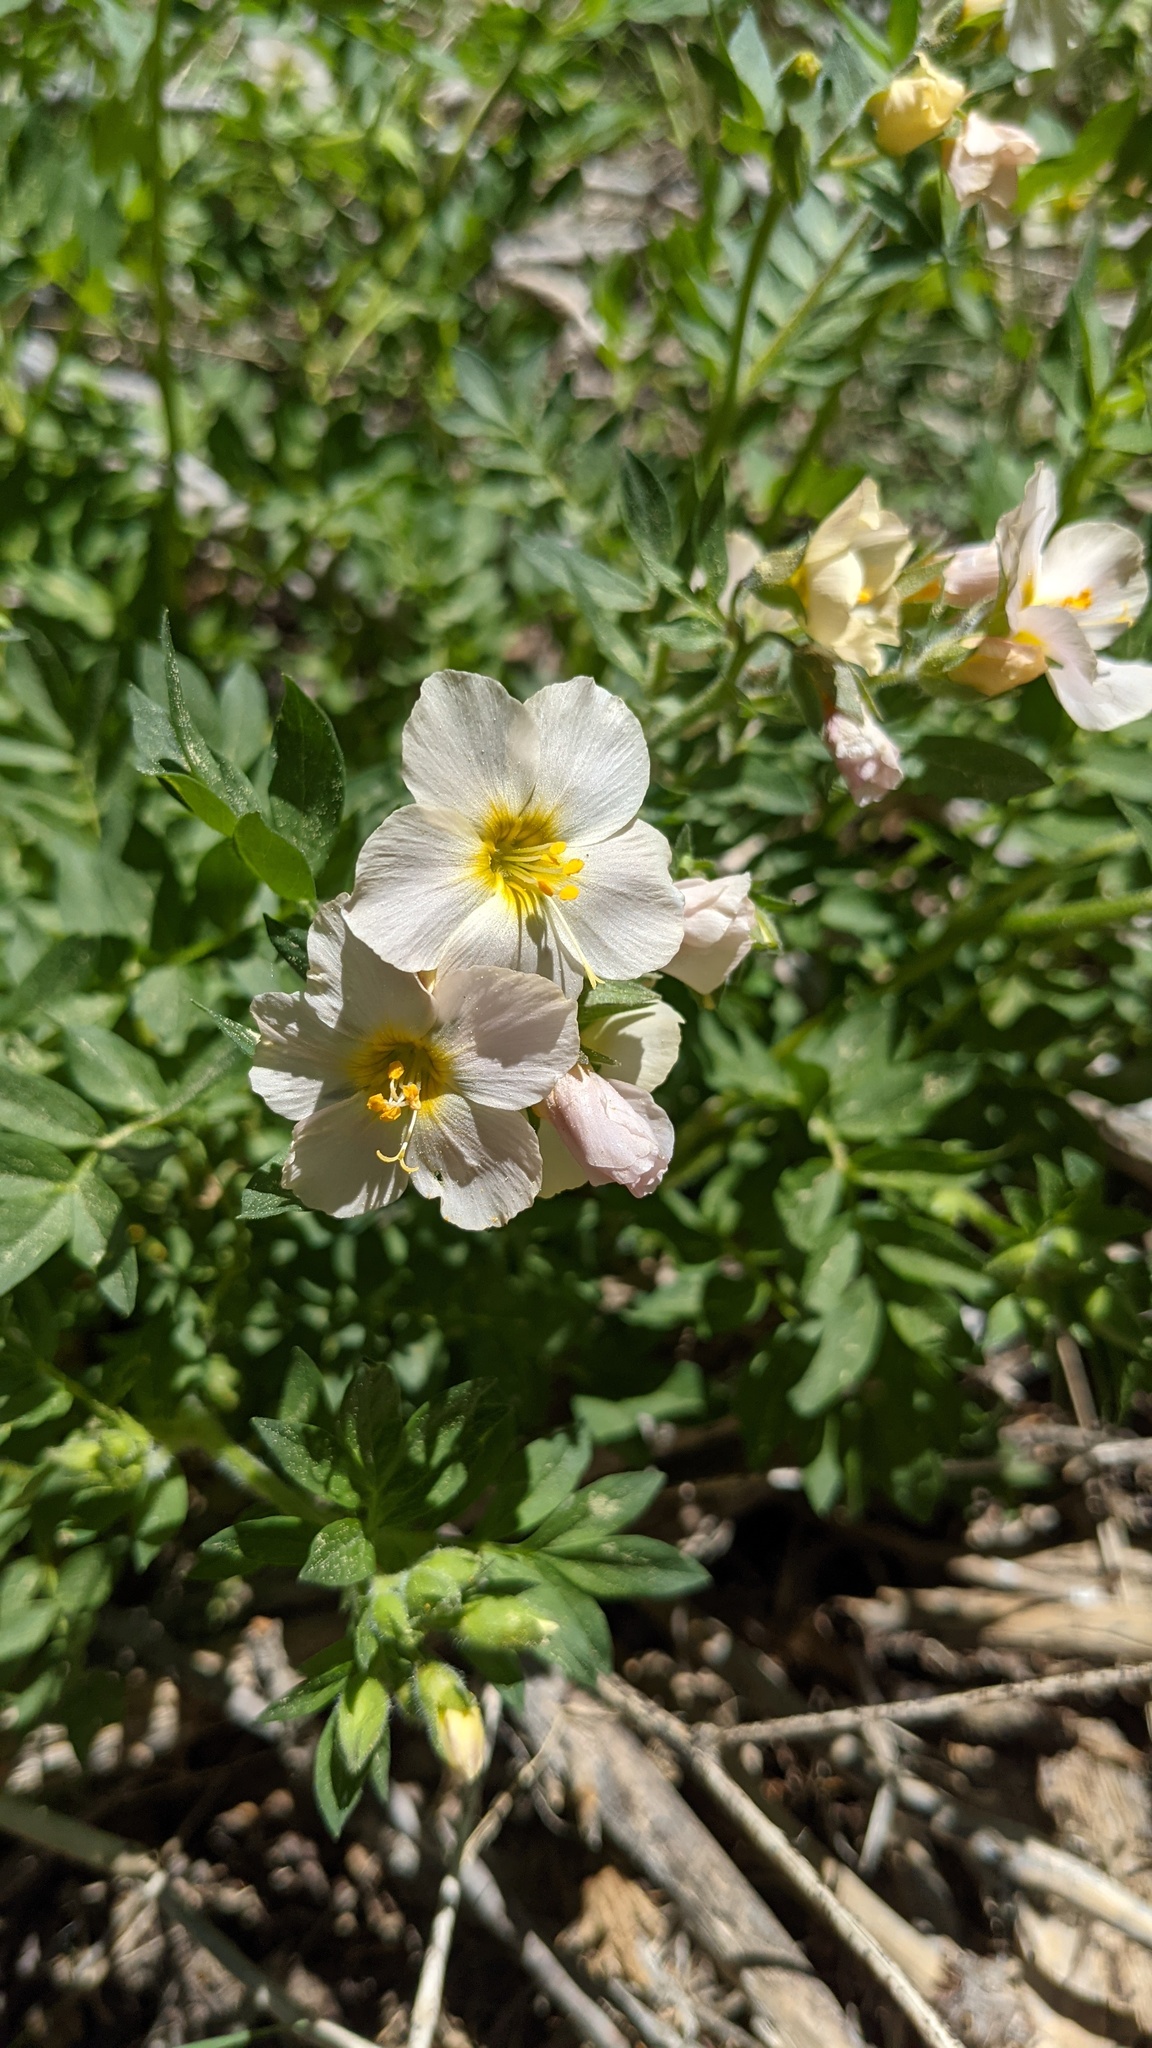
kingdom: Plantae
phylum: Tracheophyta
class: Magnoliopsida
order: Ericales
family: Polemoniaceae
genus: Polemonium
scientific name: Polemonium carneum
